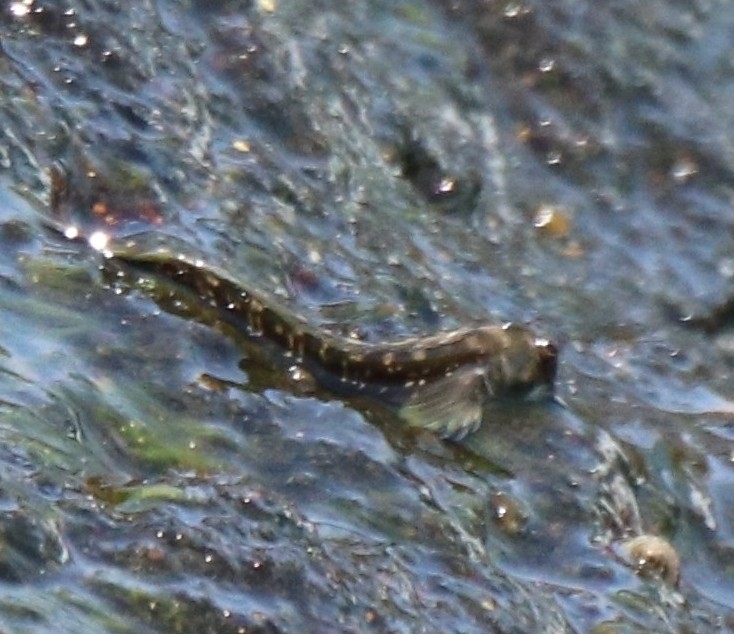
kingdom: Animalia
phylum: Chordata
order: Perciformes
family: Blenniidae
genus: Alticus
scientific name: Alticus arnoldorum
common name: Pacific leaping blenny
